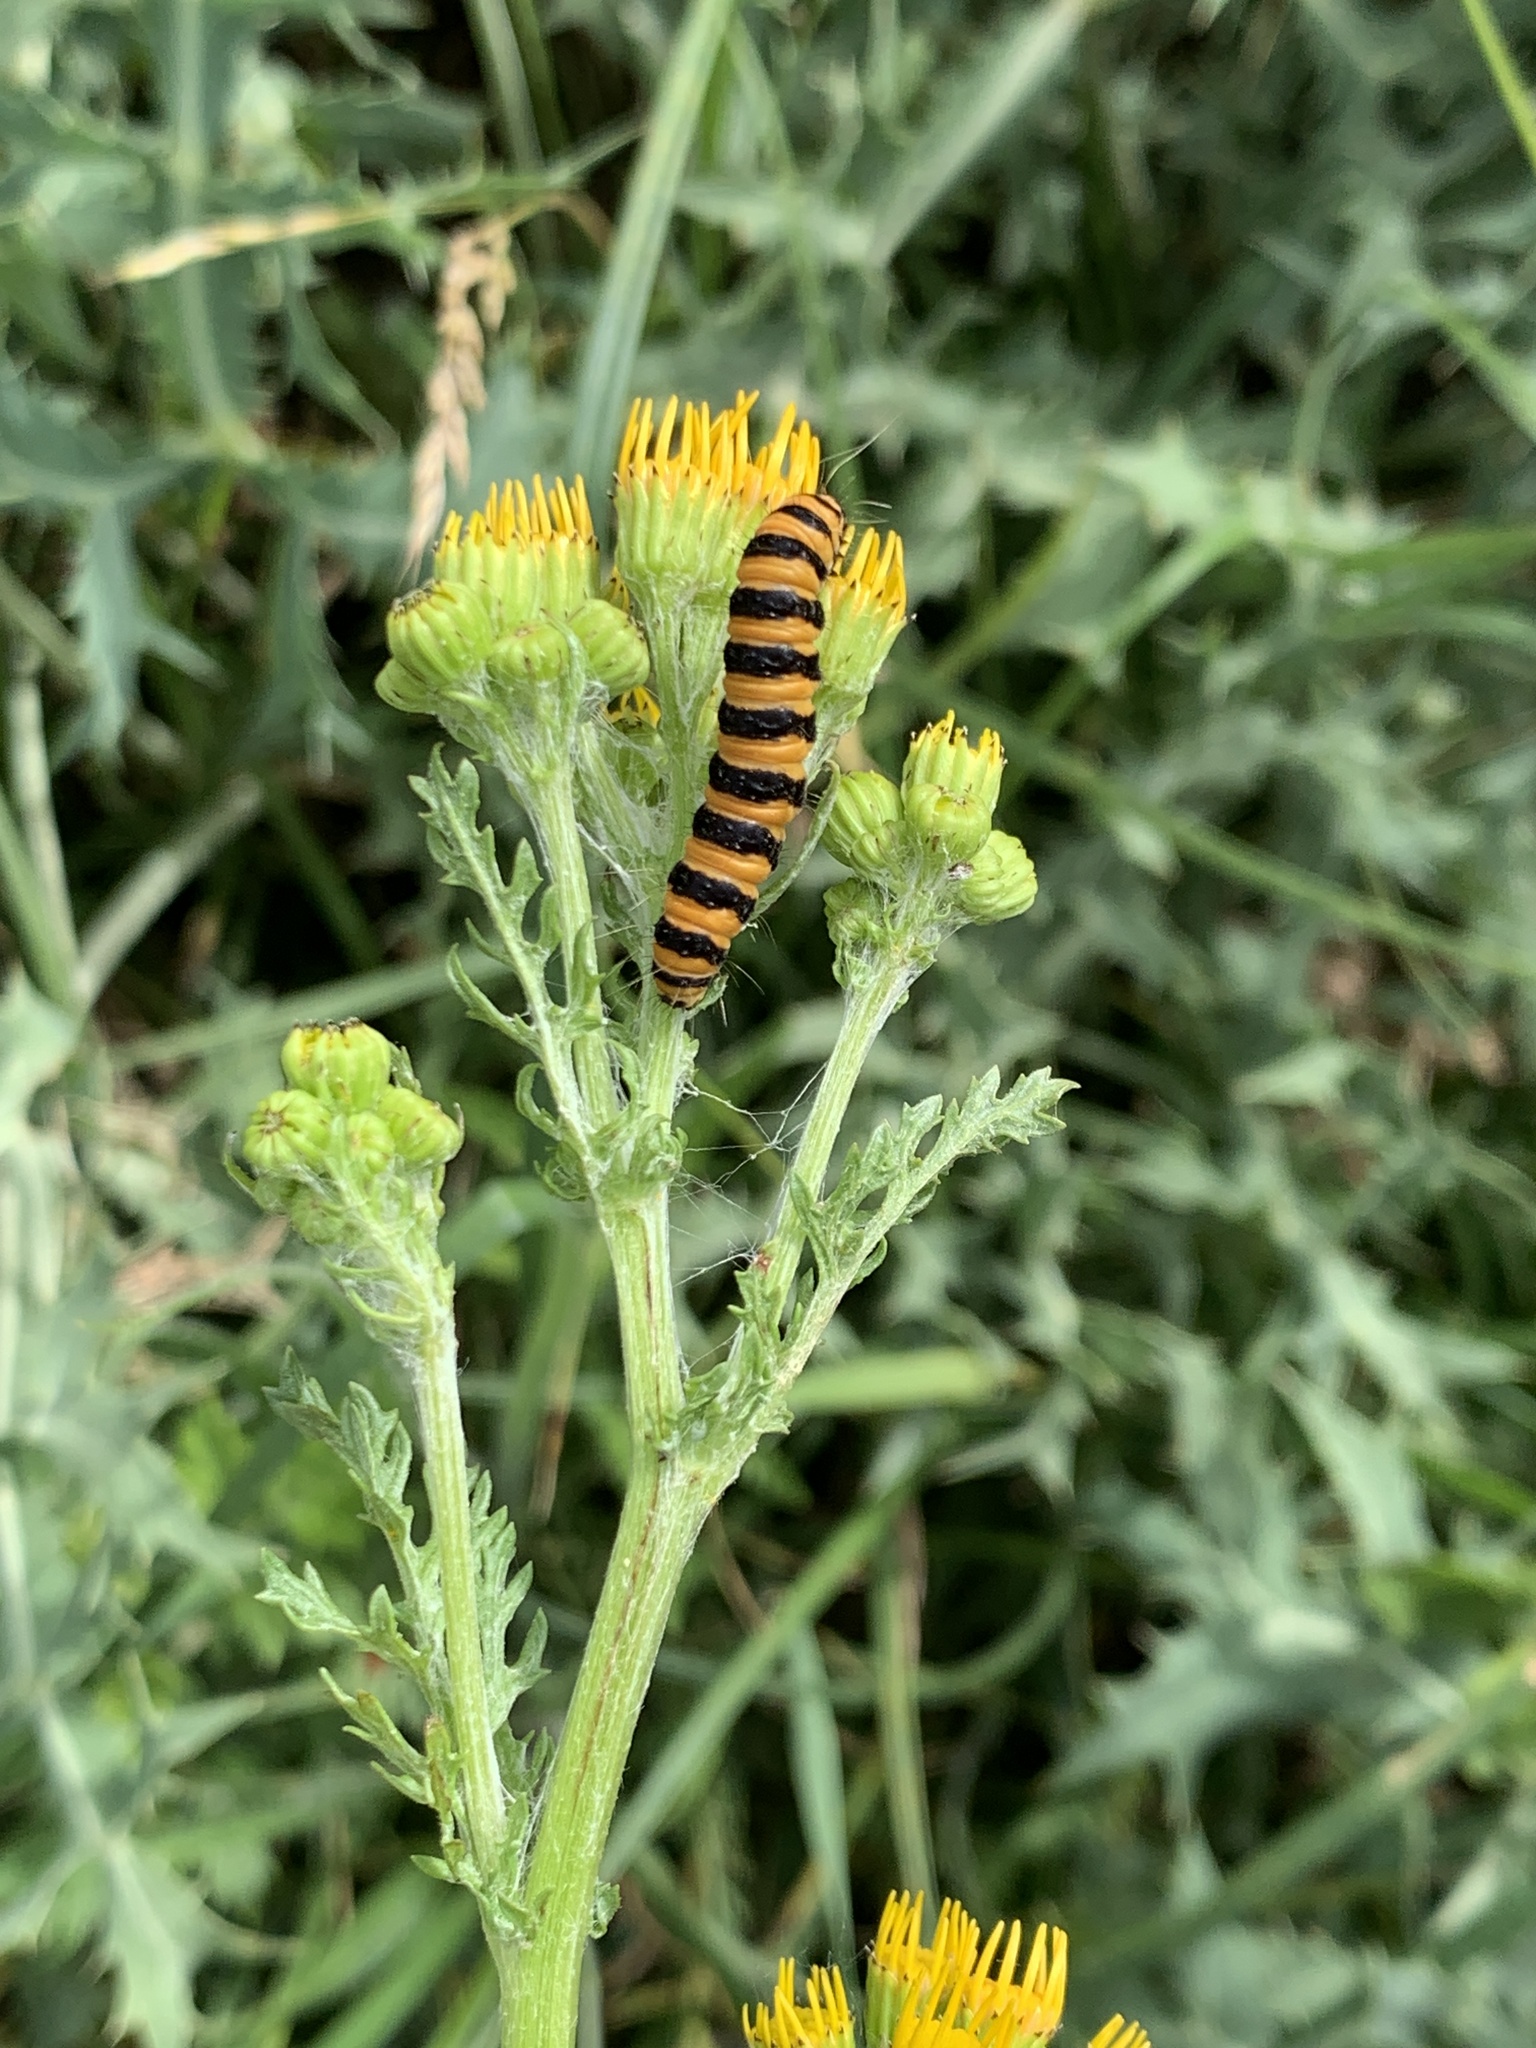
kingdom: Animalia
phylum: Arthropoda
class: Insecta
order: Lepidoptera
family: Erebidae
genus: Tyria
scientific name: Tyria jacobaeae
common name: Cinnabar
